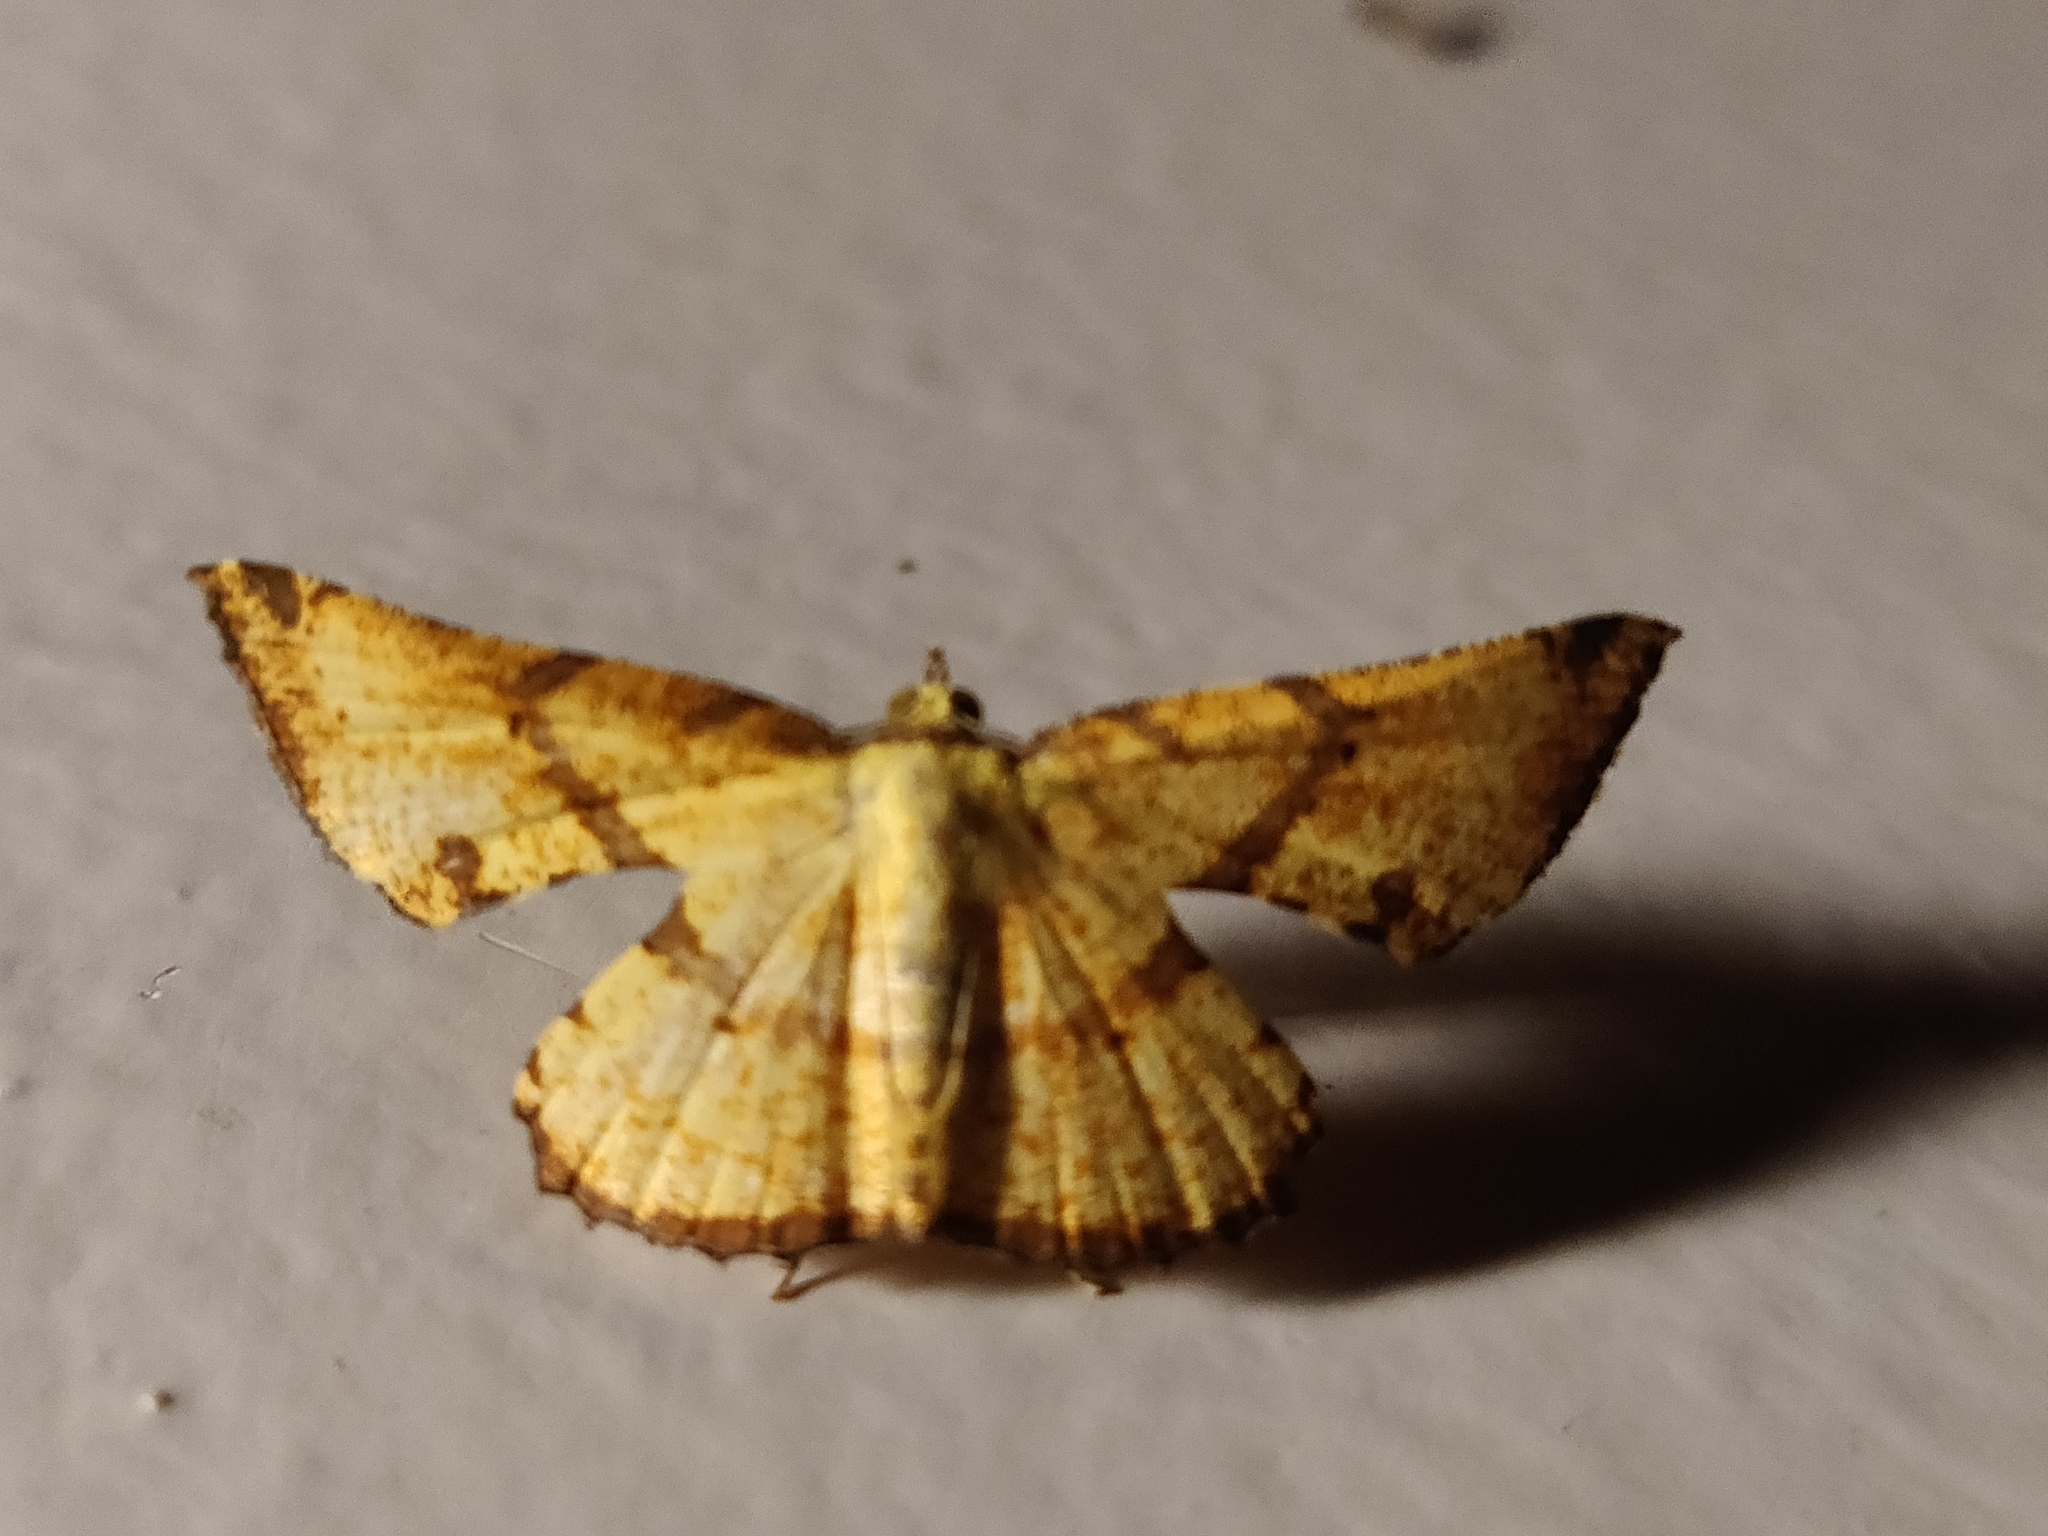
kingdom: Animalia
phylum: Arthropoda
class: Insecta
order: Lepidoptera
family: Geometridae
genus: Corymica
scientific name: Corymica deducta
